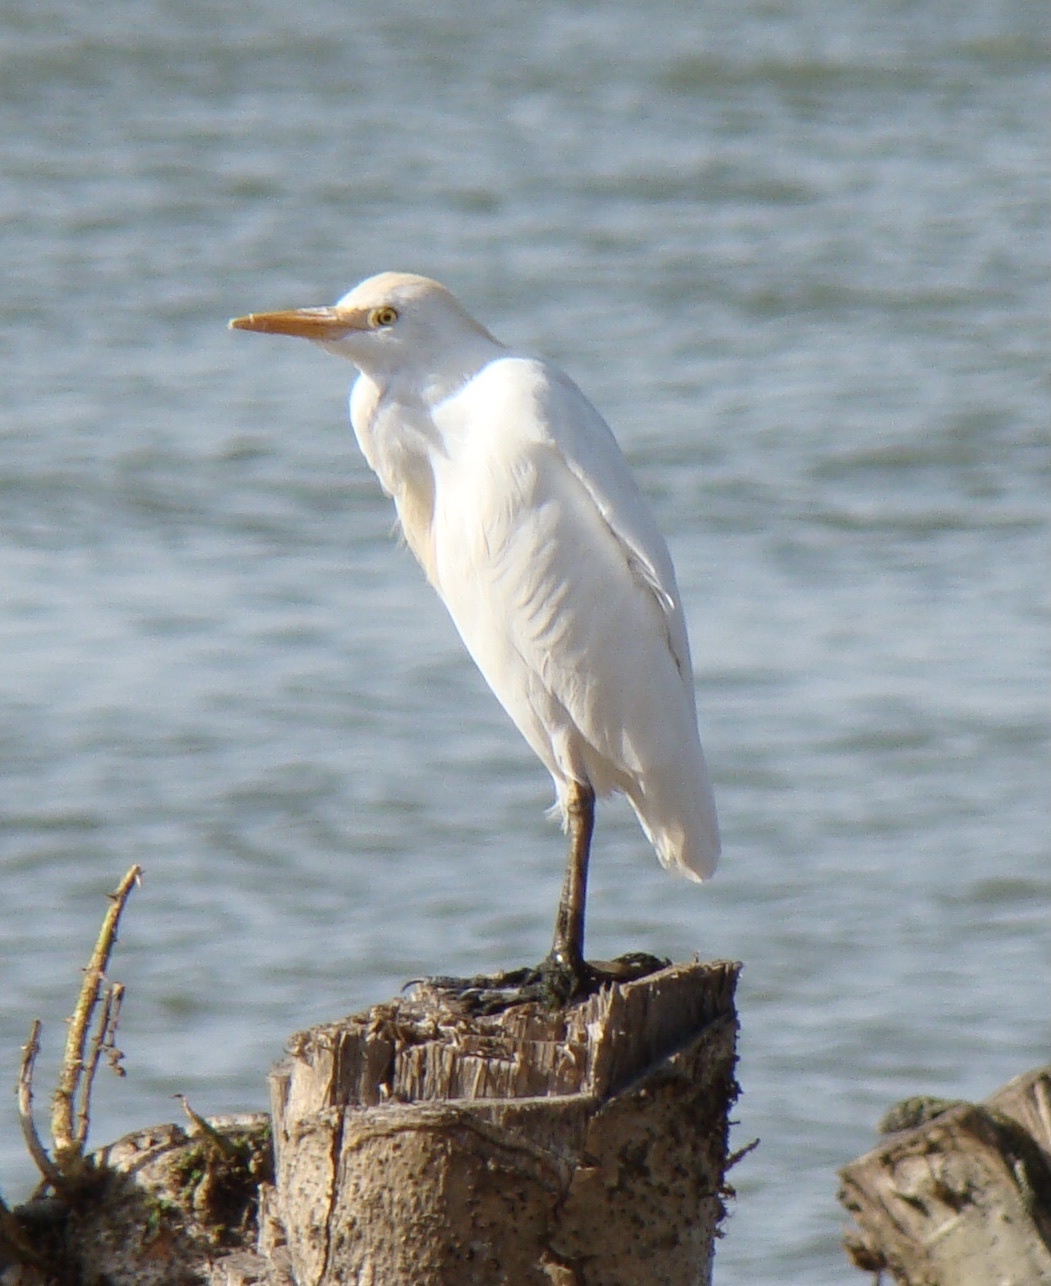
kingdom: Animalia
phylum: Chordata
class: Aves
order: Pelecaniformes
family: Ardeidae
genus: Bubulcus
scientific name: Bubulcus ibis
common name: Cattle egret
